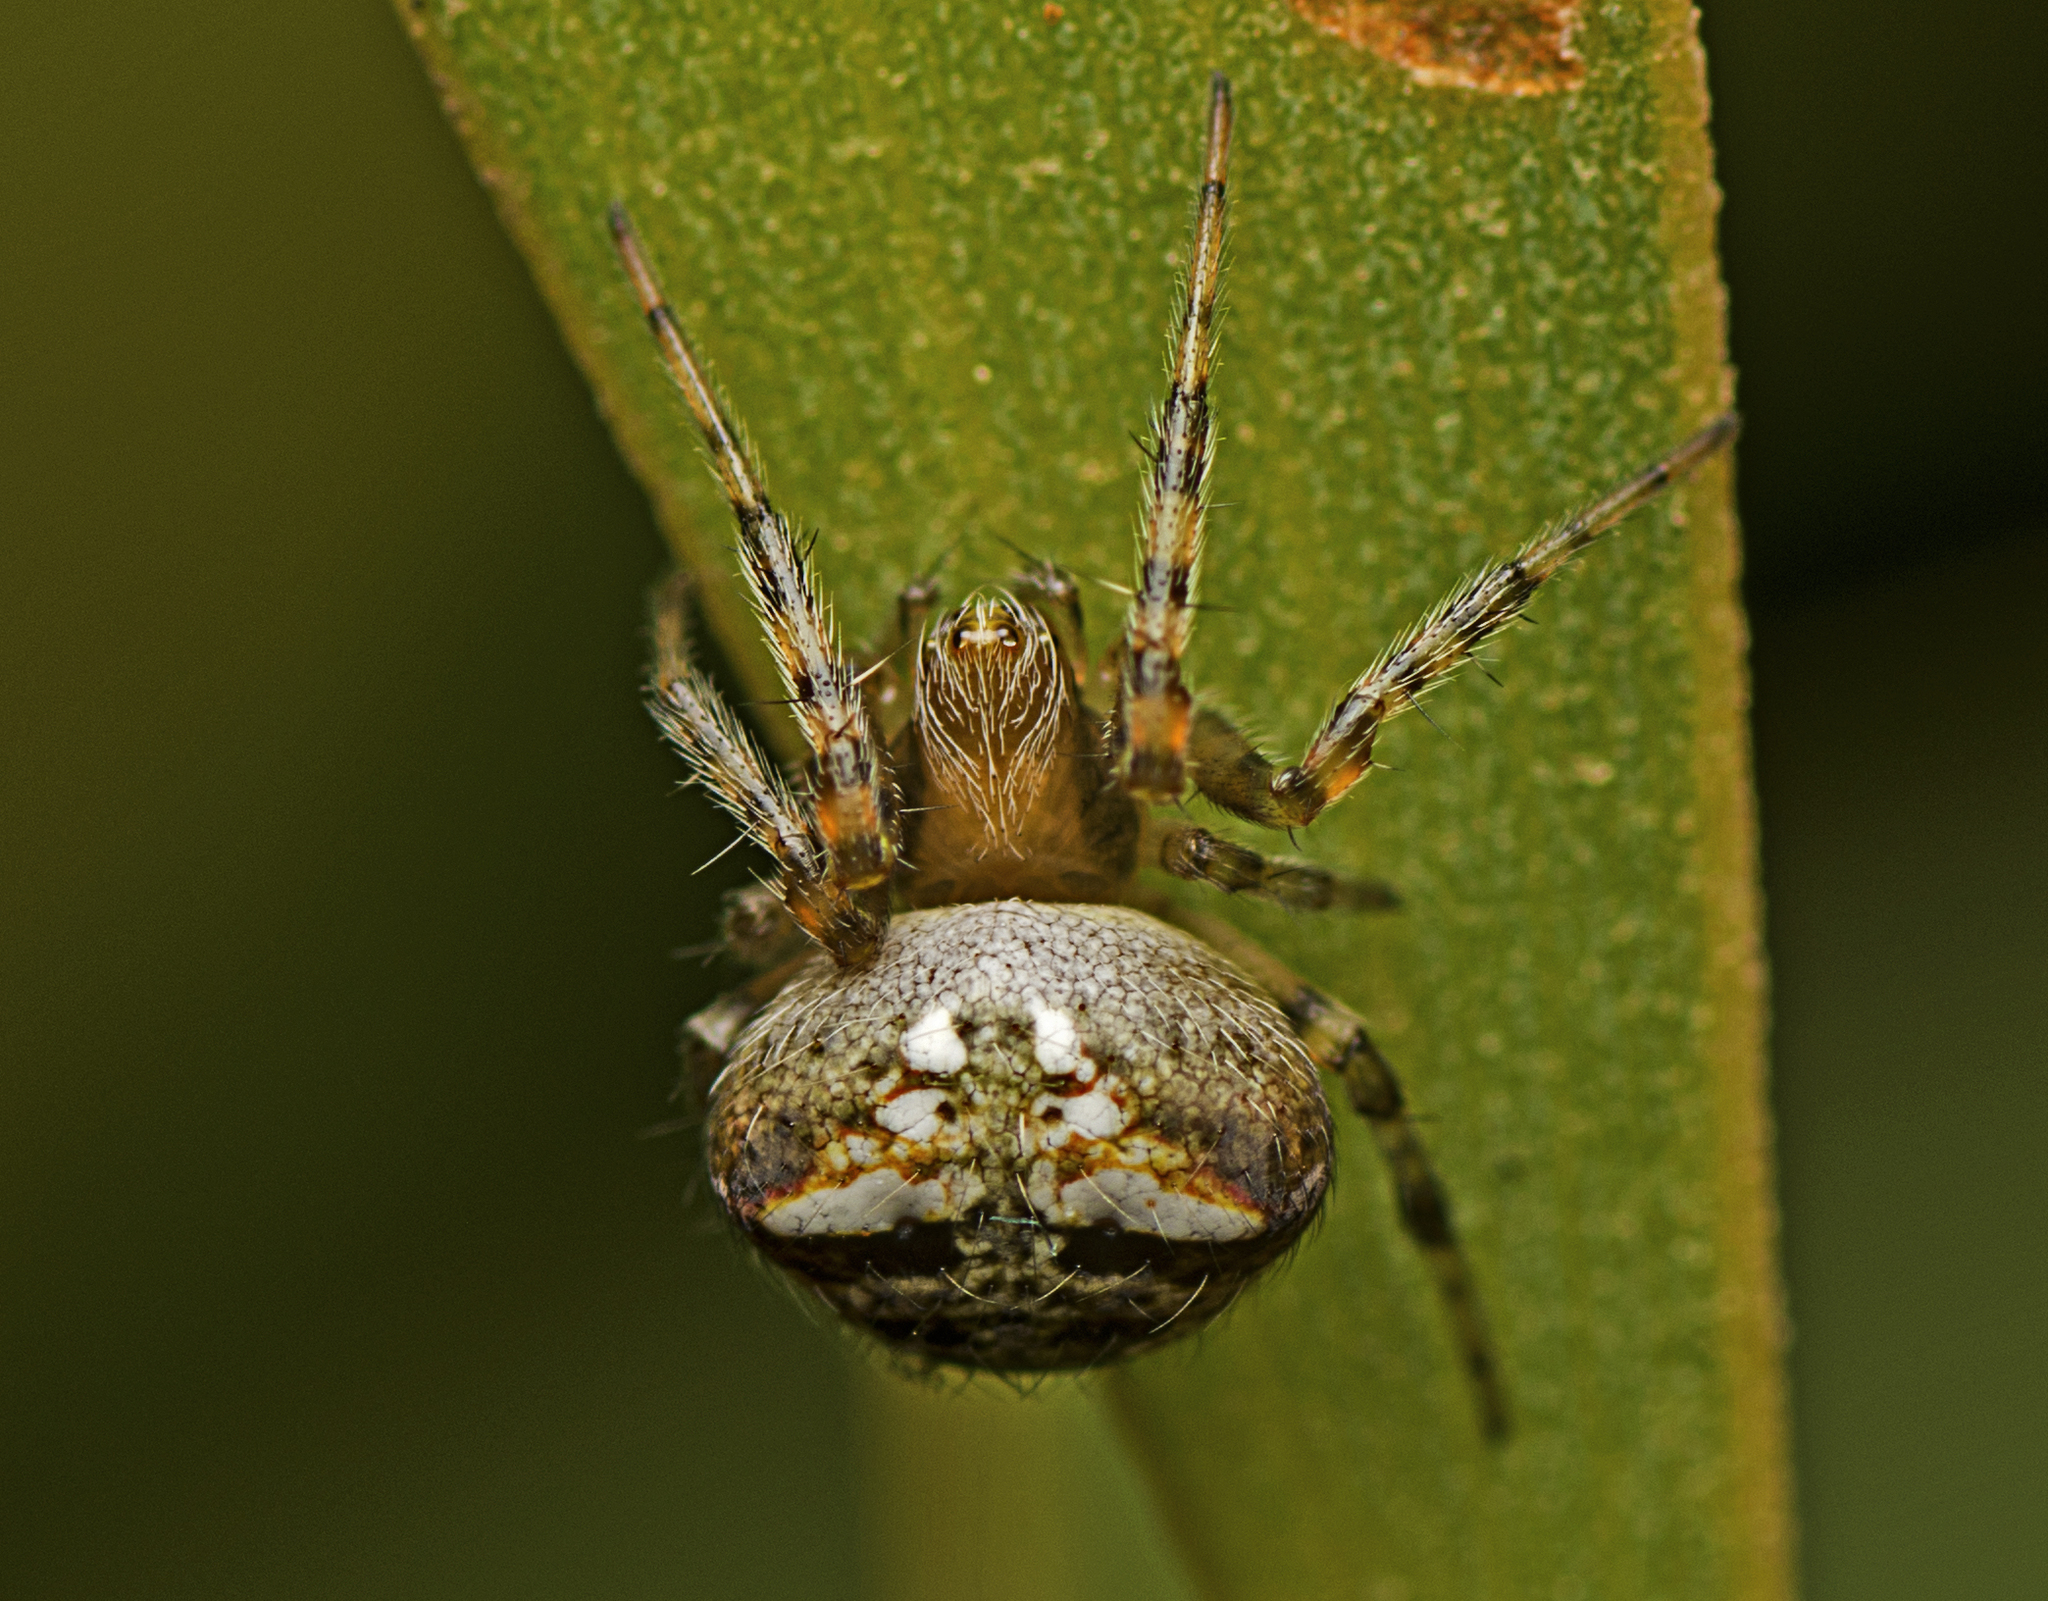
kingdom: Animalia
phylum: Arthropoda
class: Arachnida
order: Araneae
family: Araneidae
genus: Araneus
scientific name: Araneus albotriangulus
